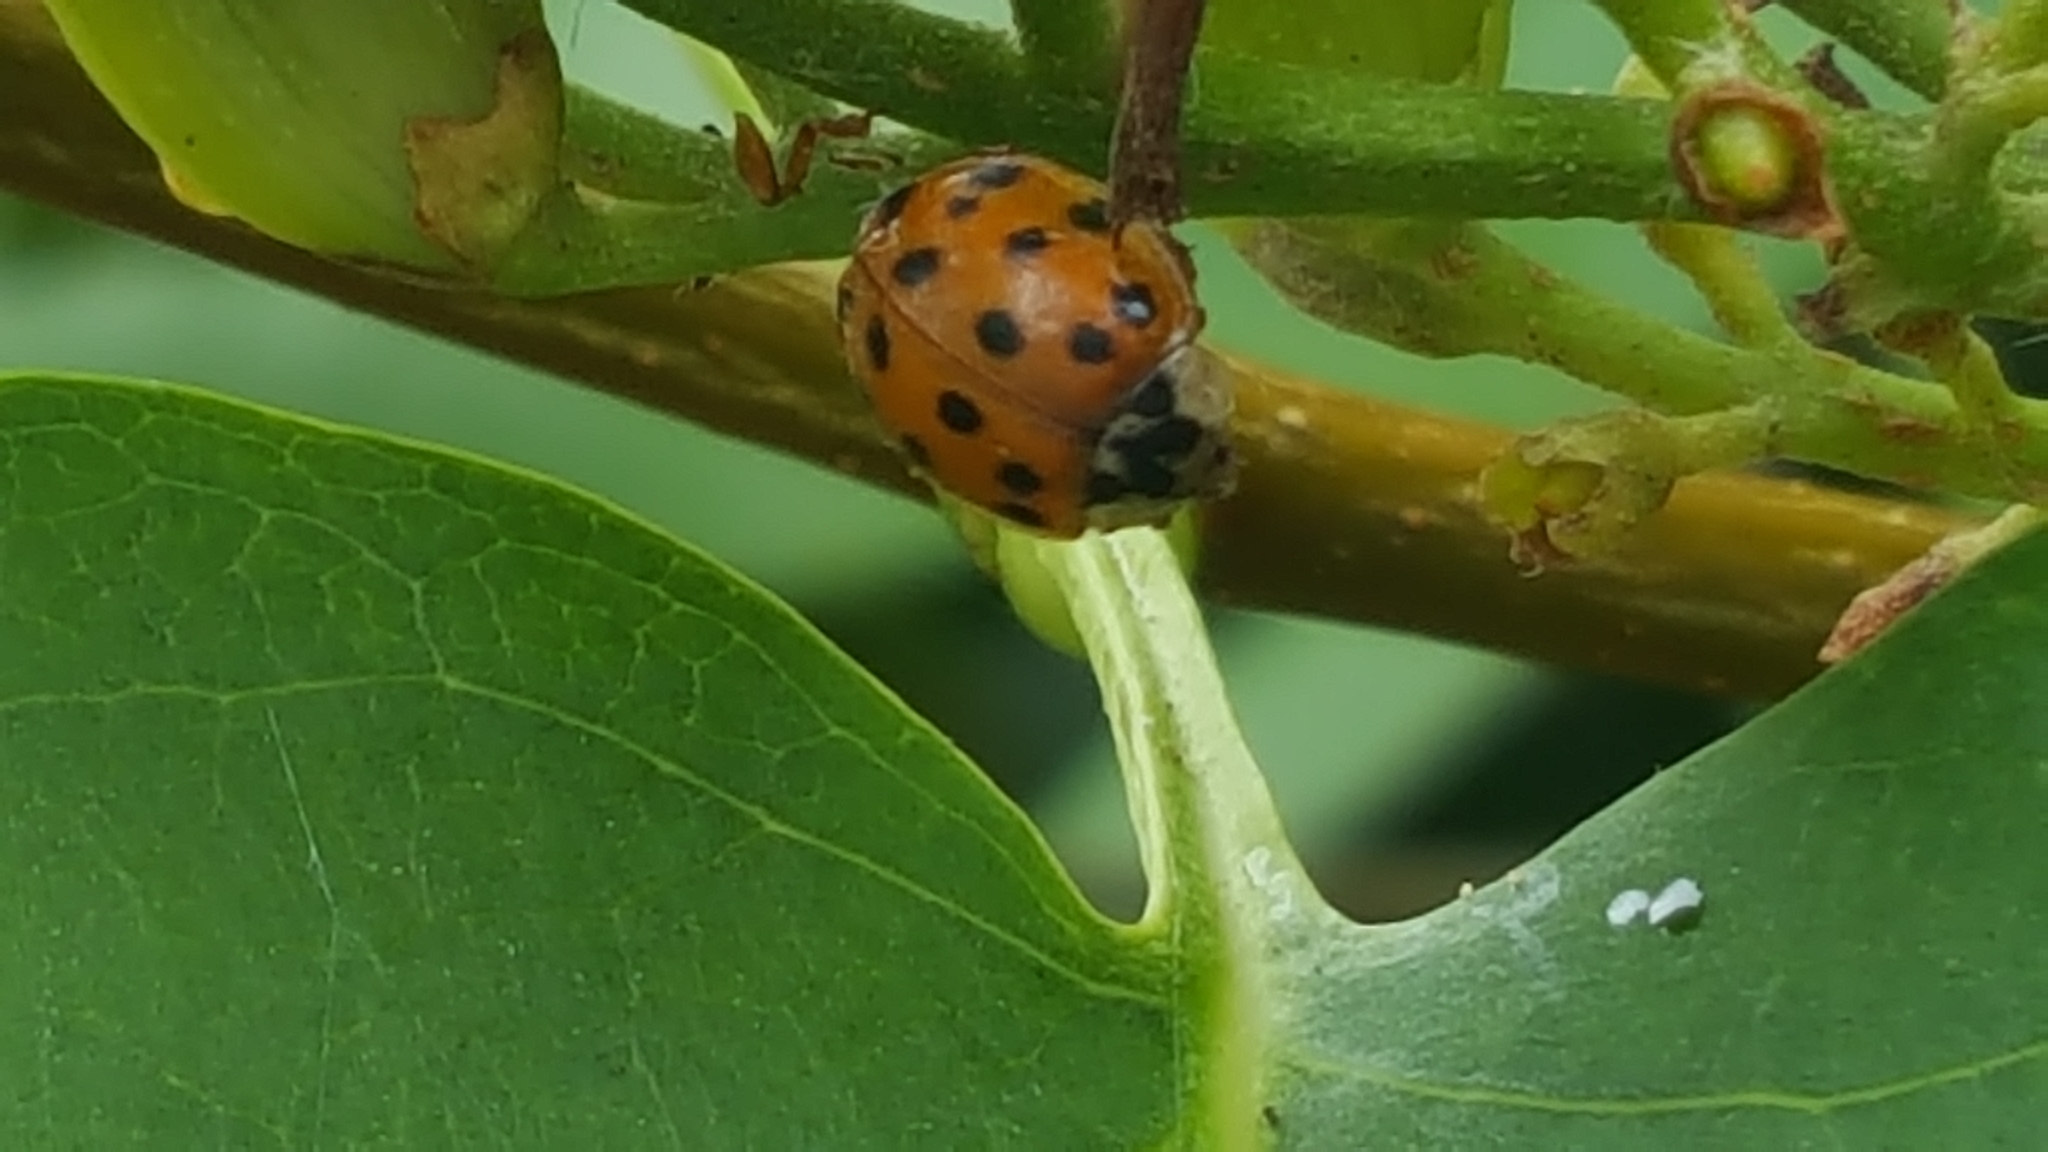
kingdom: Animalia
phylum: Arthropoda
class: Insecta
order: Coleoptera
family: Coccinellidae
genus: Harmonia
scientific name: Harmonia axyridis
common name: Harlequin ladybird
